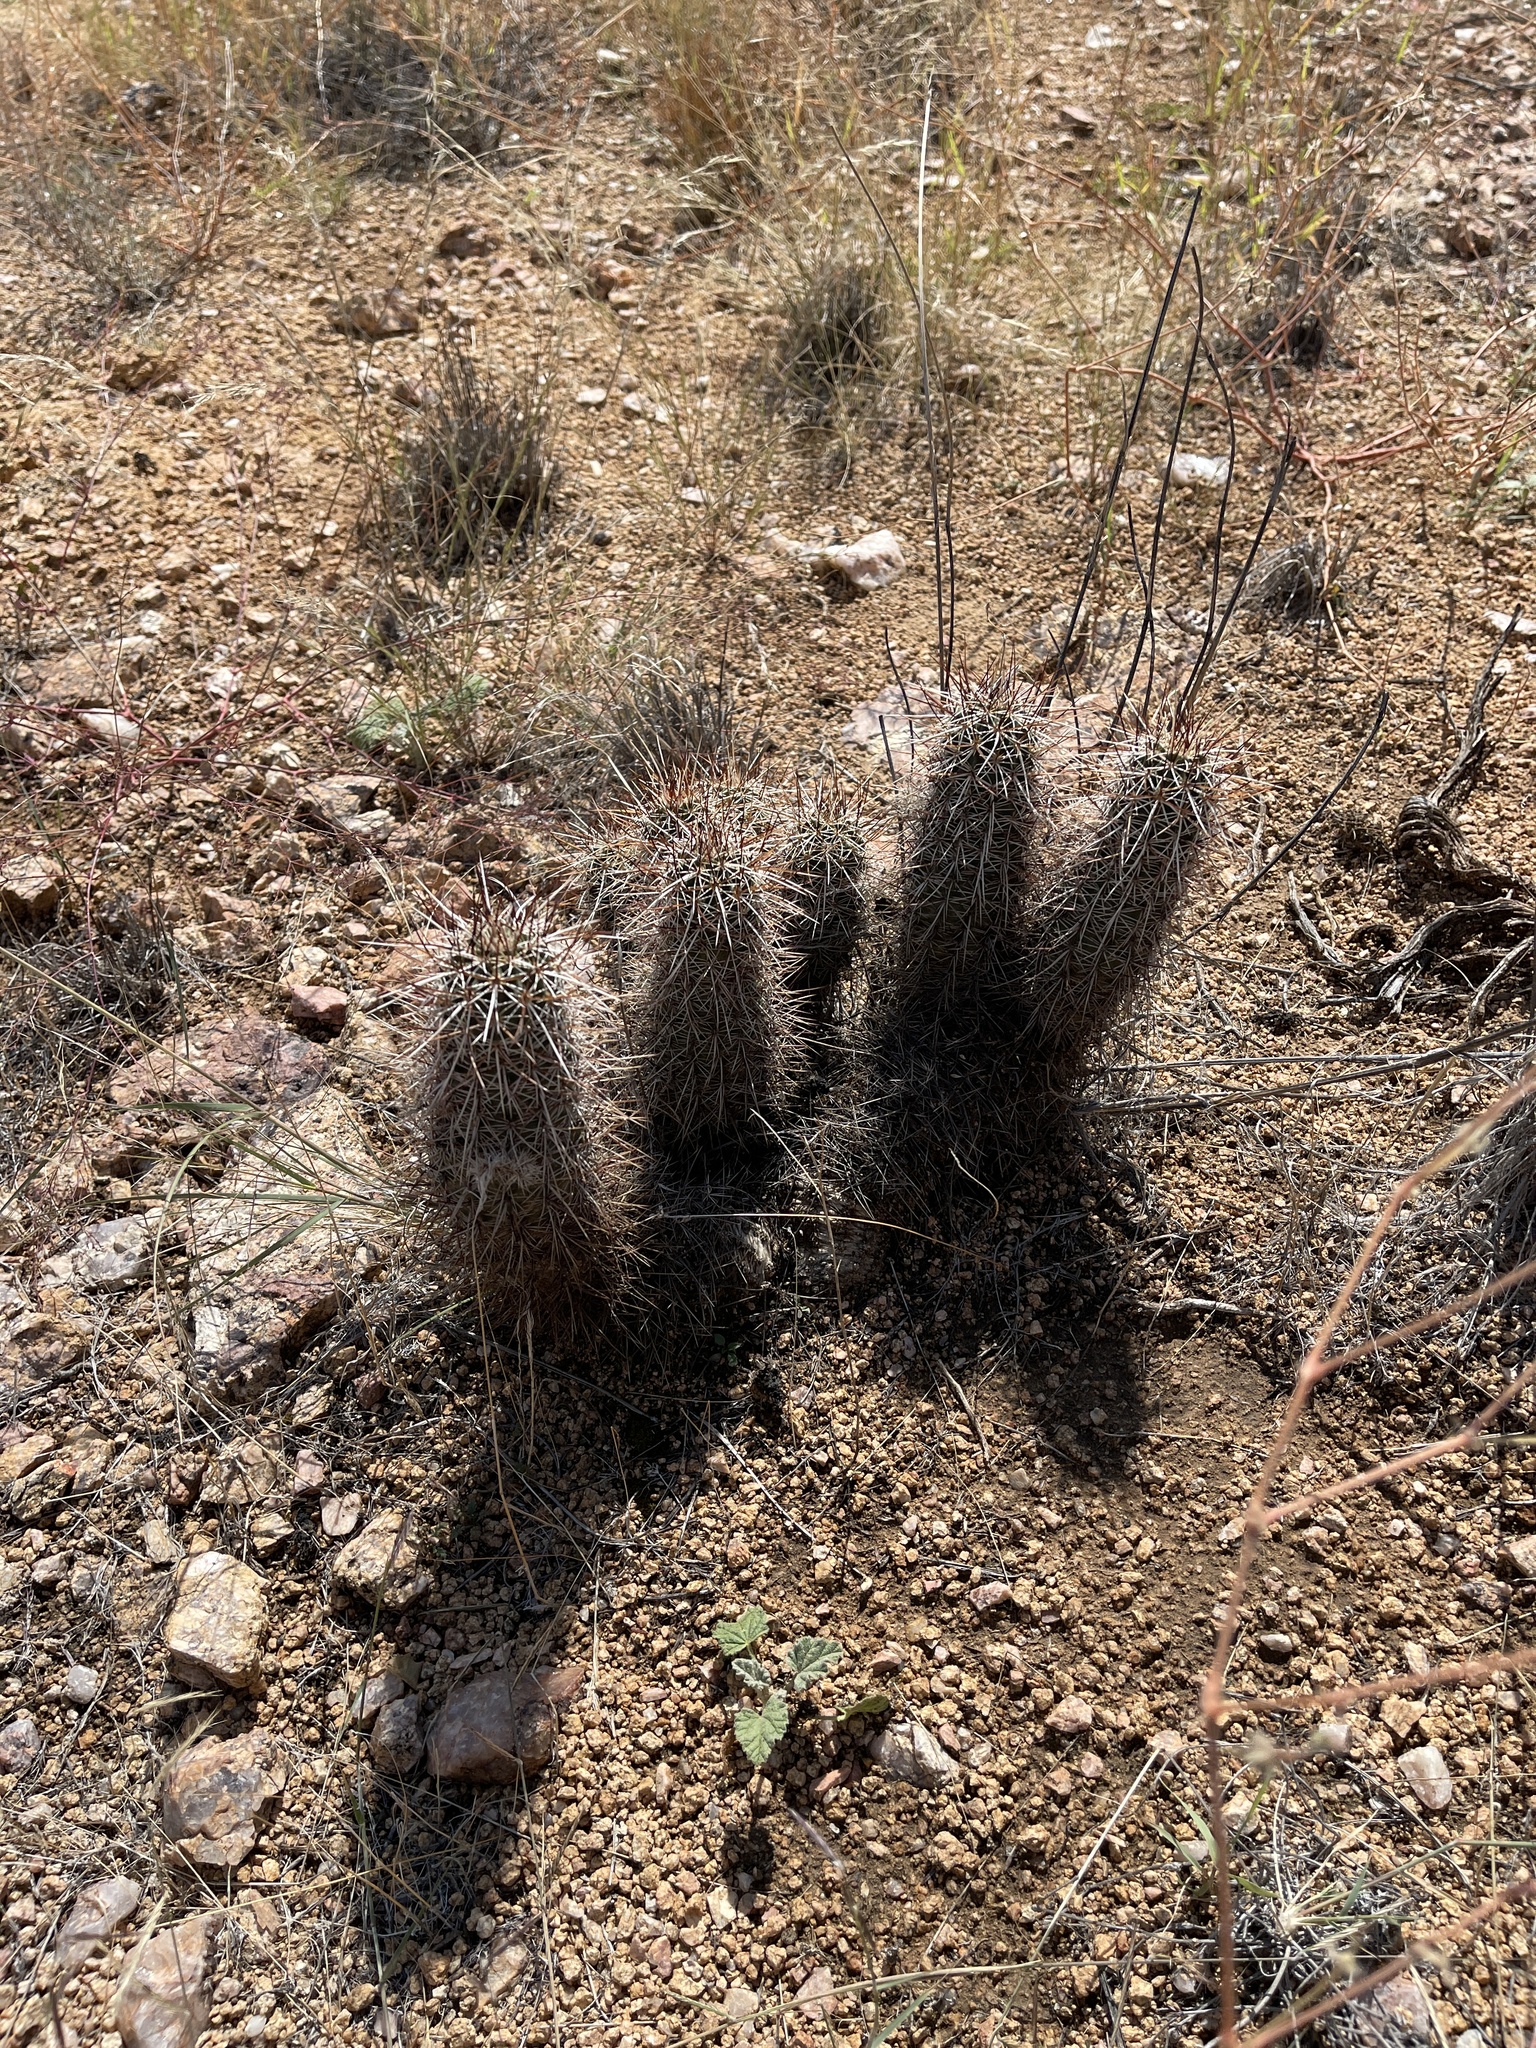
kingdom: Plantae
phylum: Tracheophyta
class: Magnoliopsida
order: Caryophyllales
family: Cactaceae
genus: Echinocereus
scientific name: Echinocereus engelmannii
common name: Engelmann's hedgehog cactus
